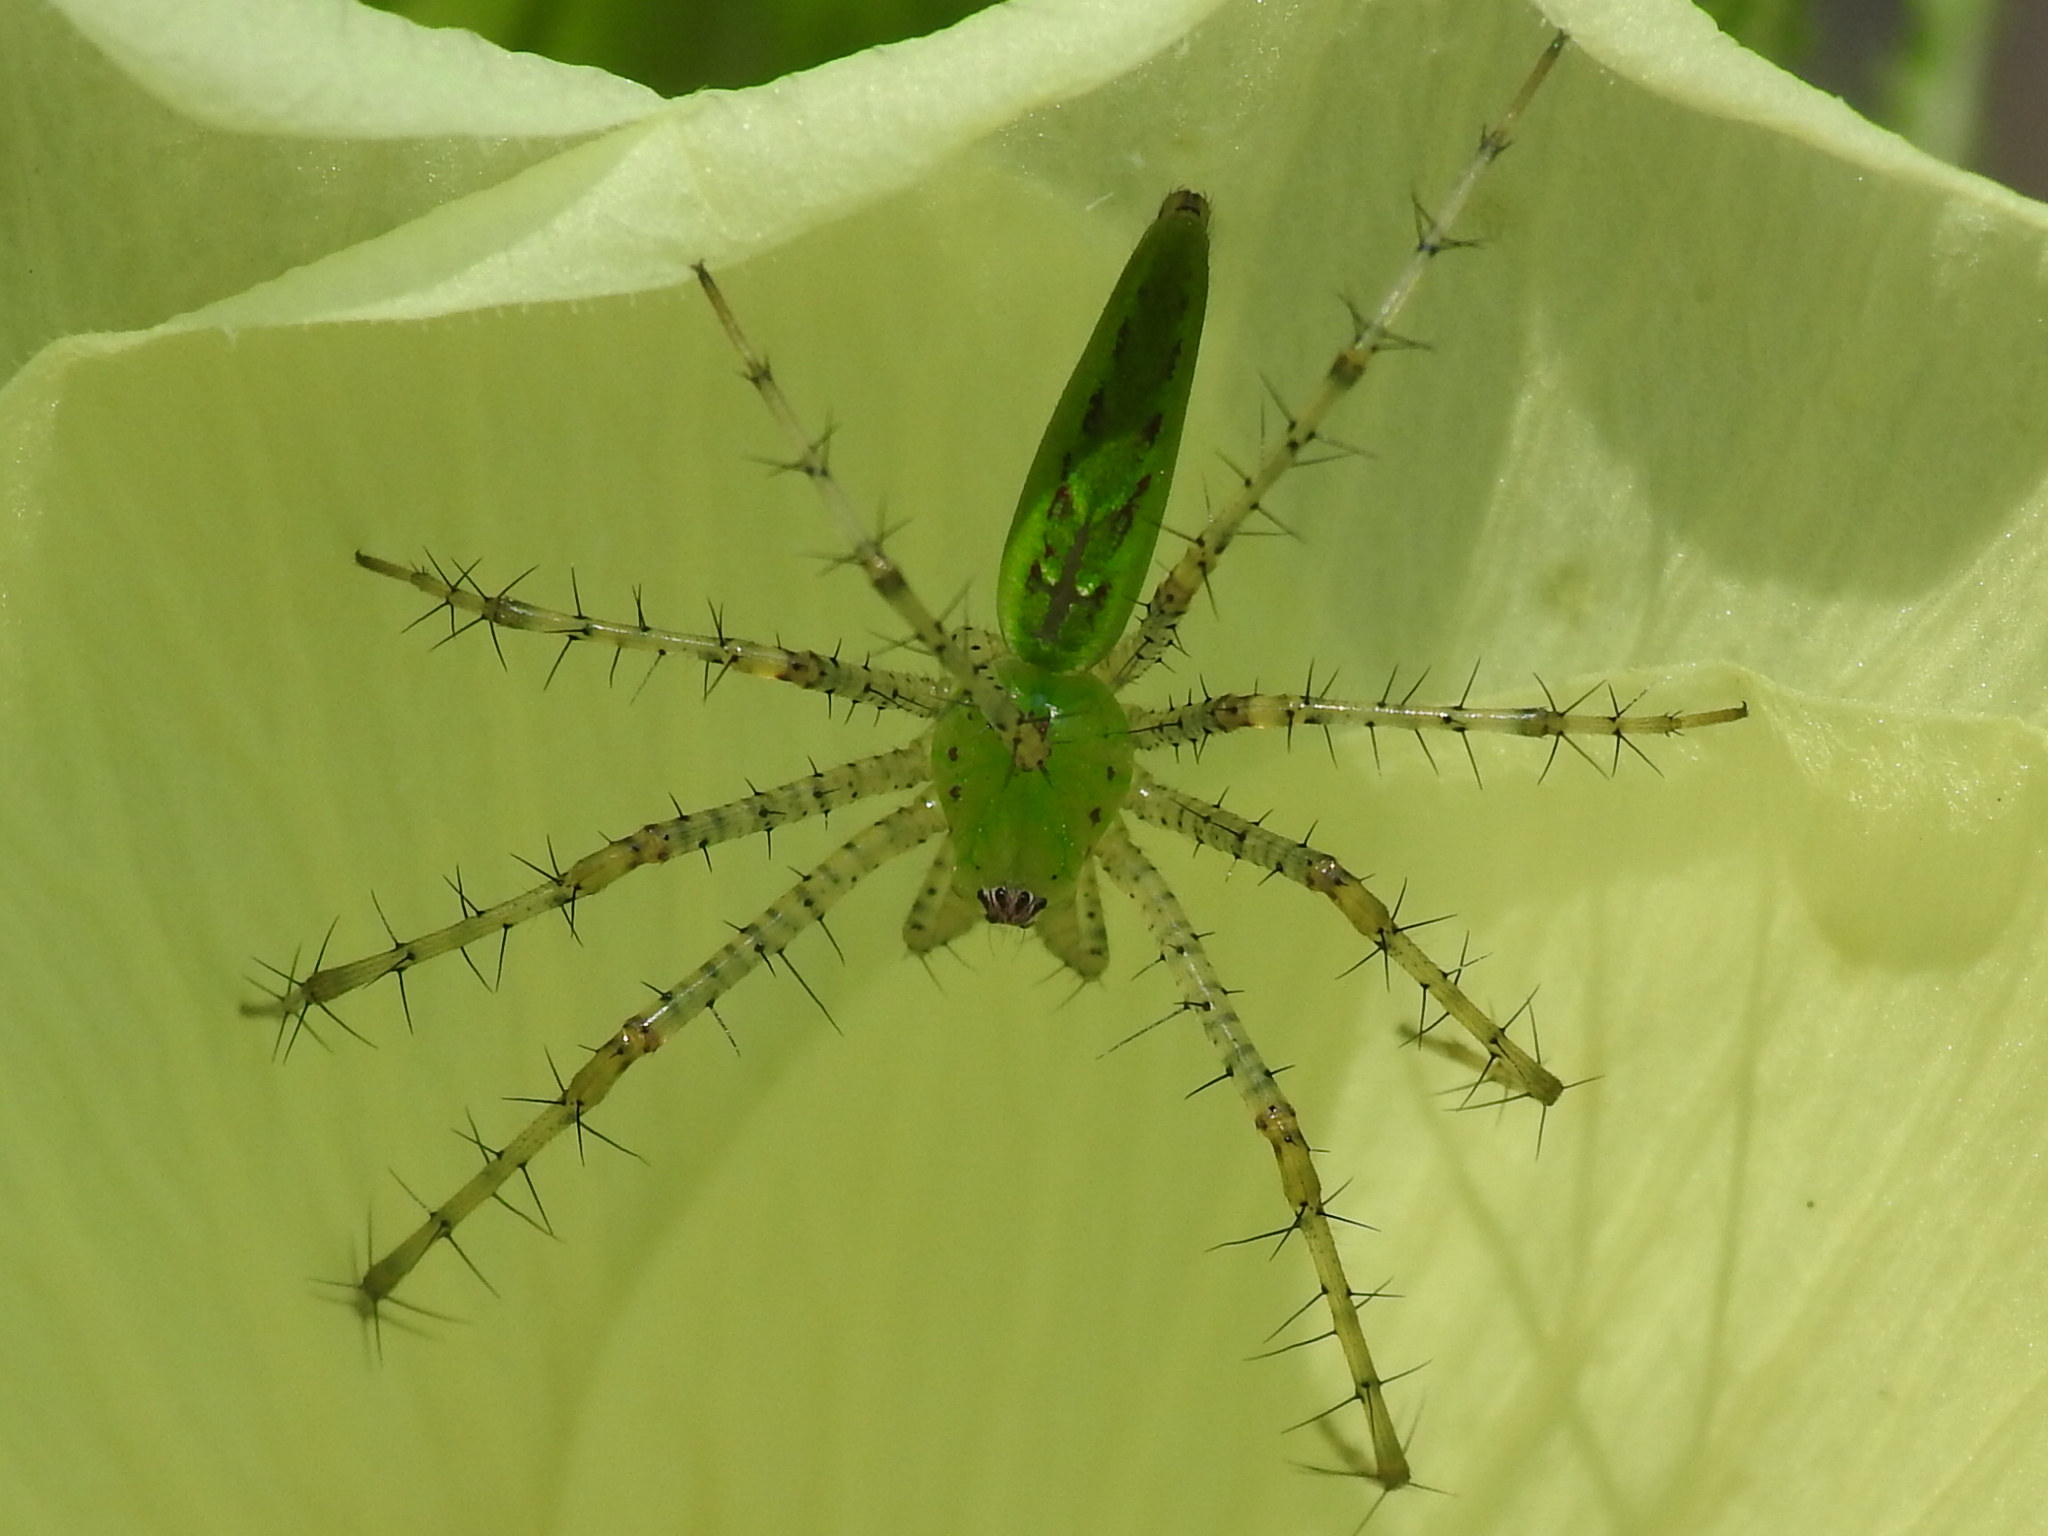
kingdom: Animalia
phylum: Arthropoda
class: Arachnida
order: Araneae
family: Oxyopidae
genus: Peucetia
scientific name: Peucetia viridans
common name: Lynx spiders
